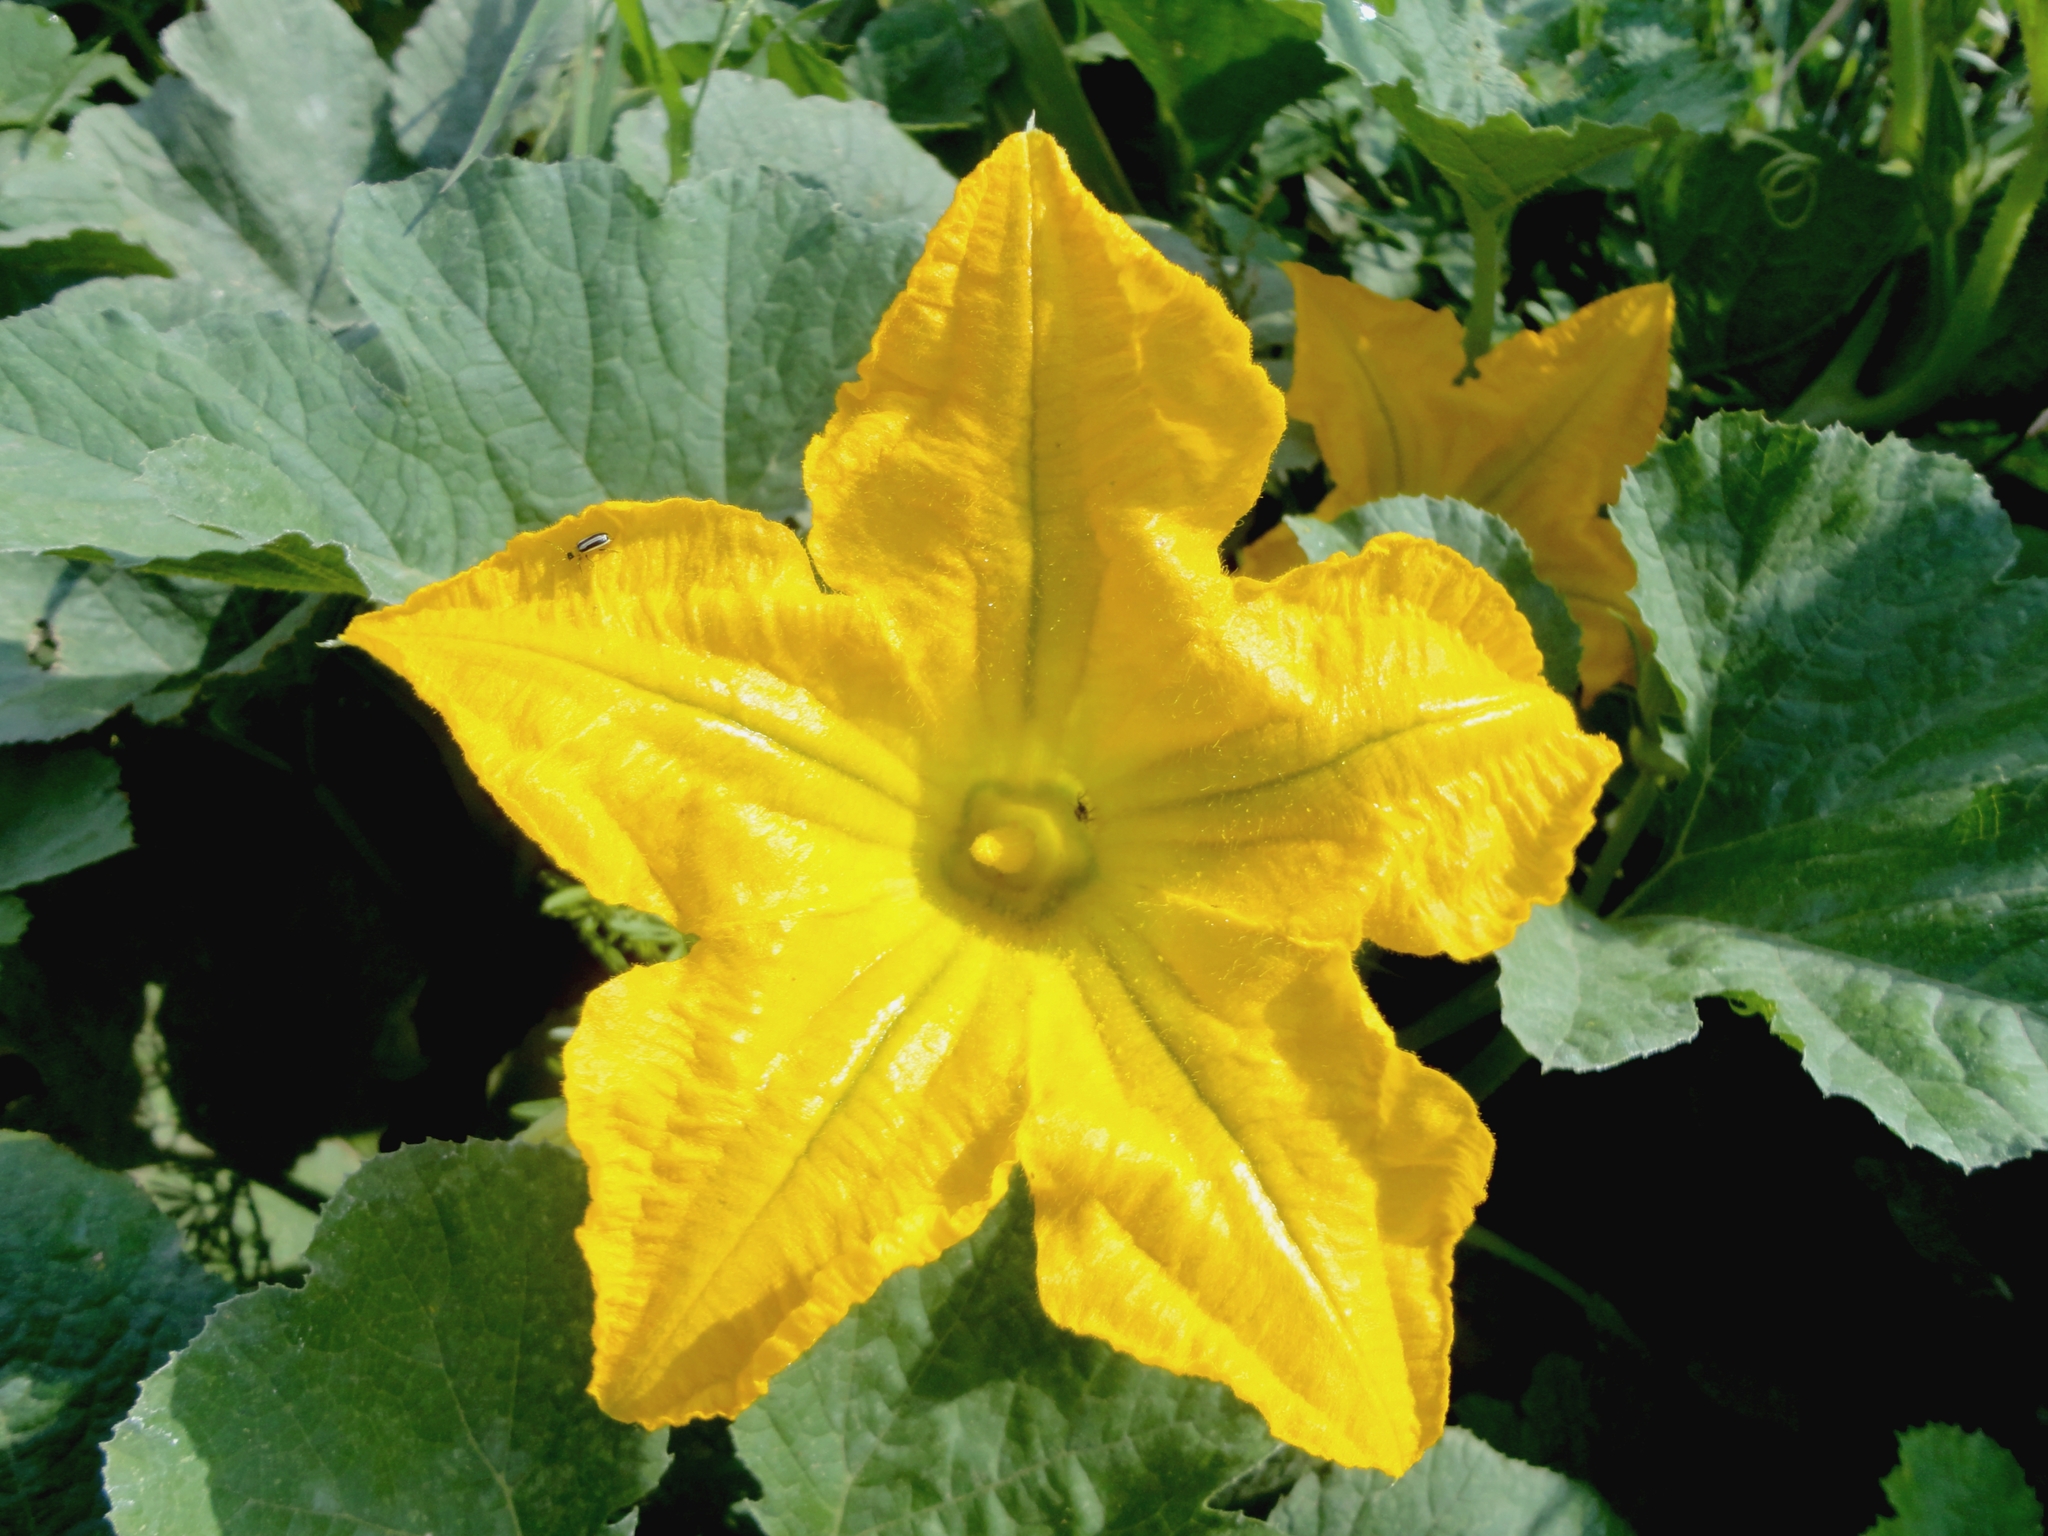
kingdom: Plantae
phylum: Tracheophyta
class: Magnoliopsida
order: Cucurbitales
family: Cucurbitaceae
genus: Cucurbita
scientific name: Cucurbita pepo
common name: Marrow
